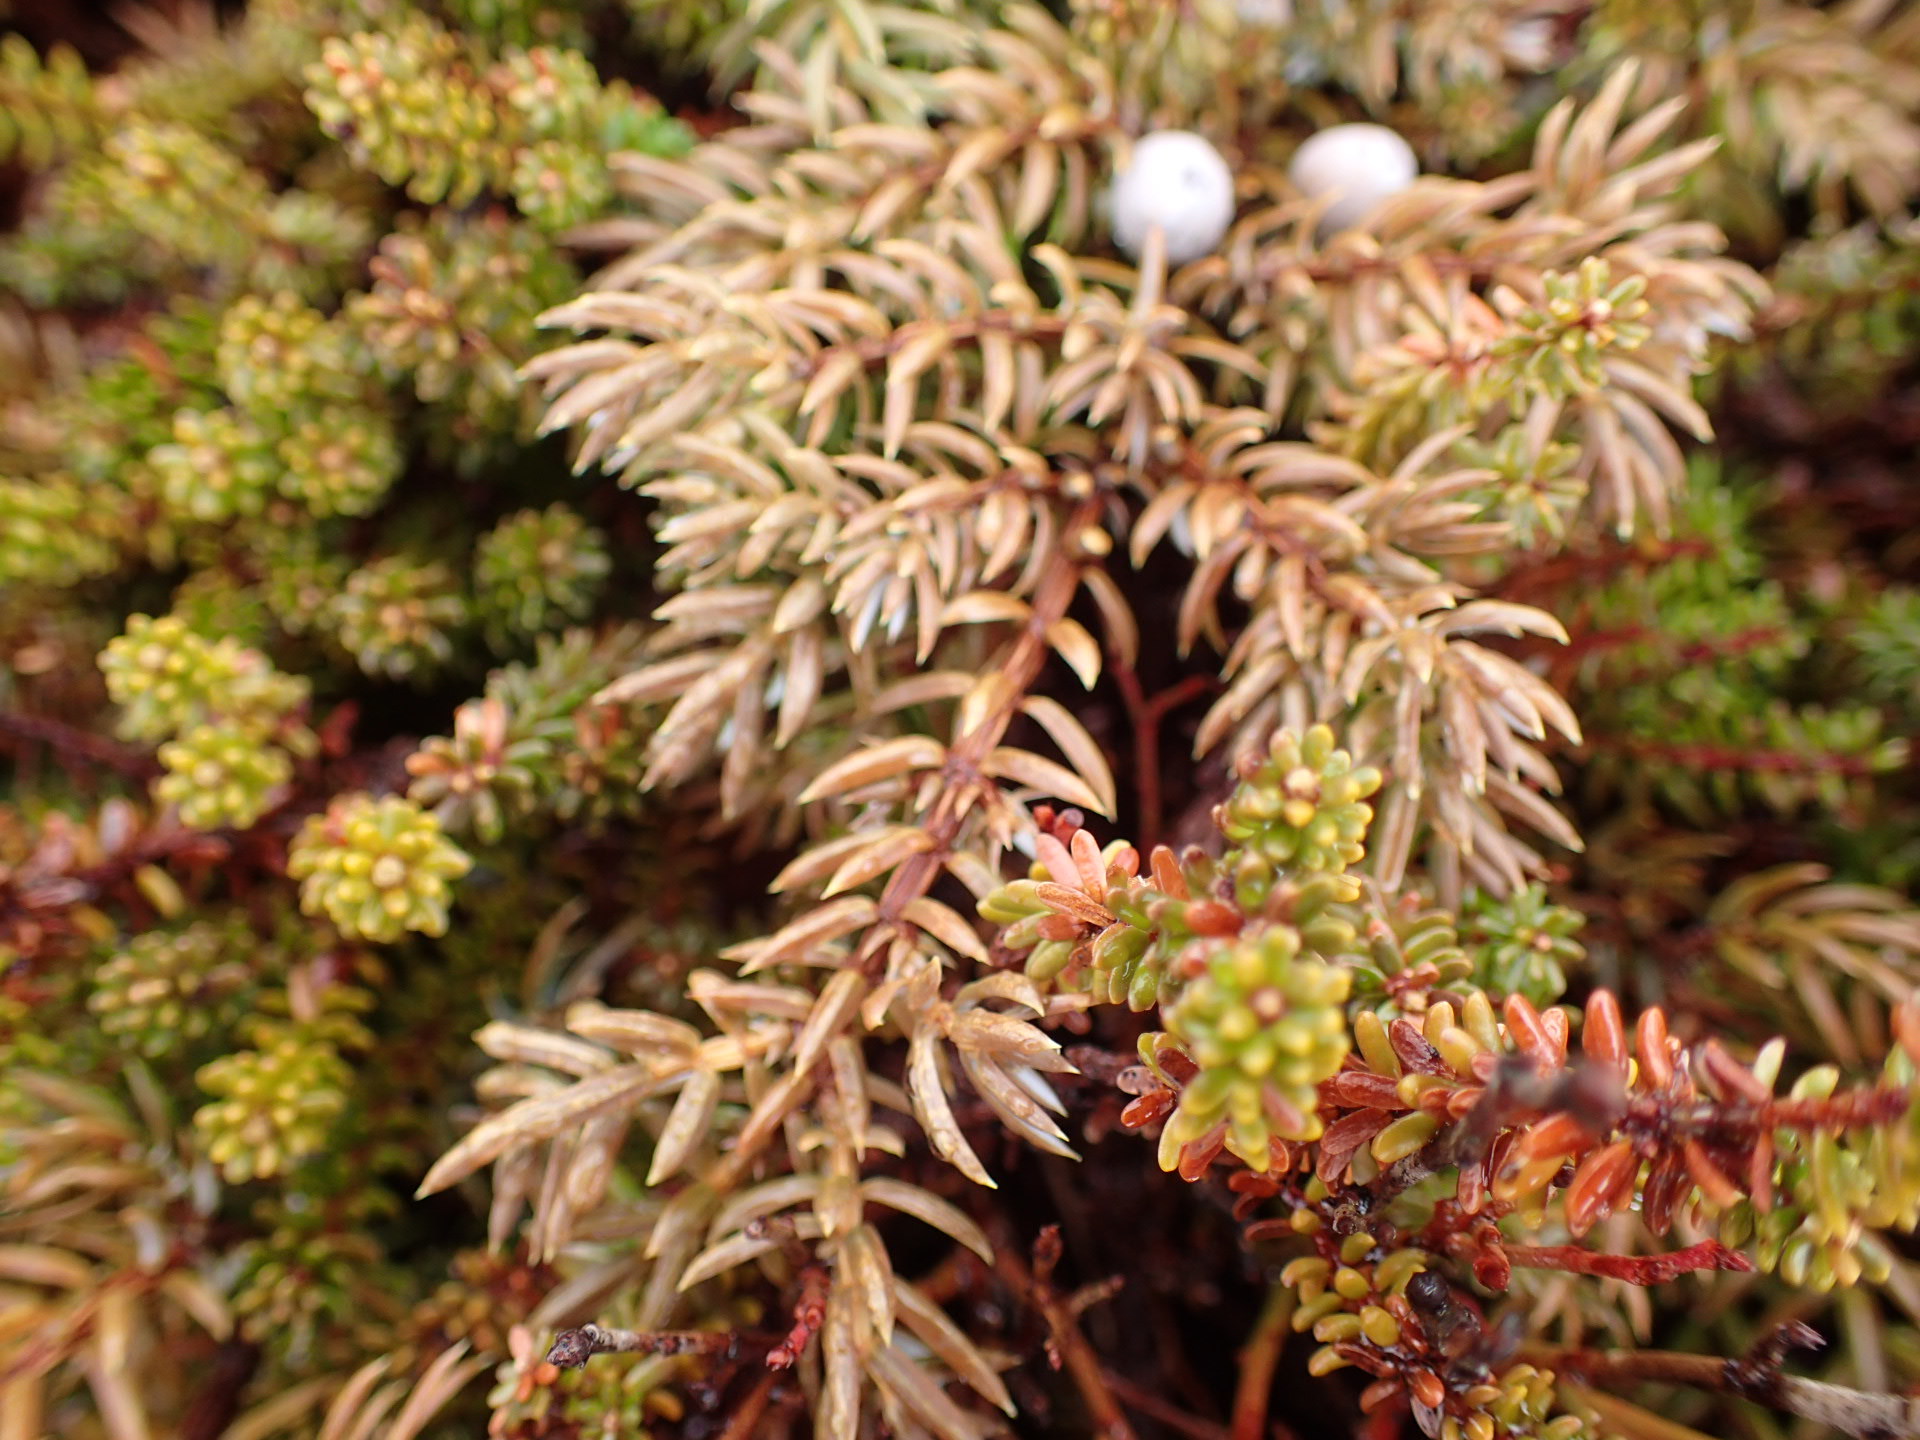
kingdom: Plantae
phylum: Tracheophyta
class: Pinopsida
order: Pinales
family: Cupressaceae
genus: Juniperus
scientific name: Juniperus communis
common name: Common juniper
